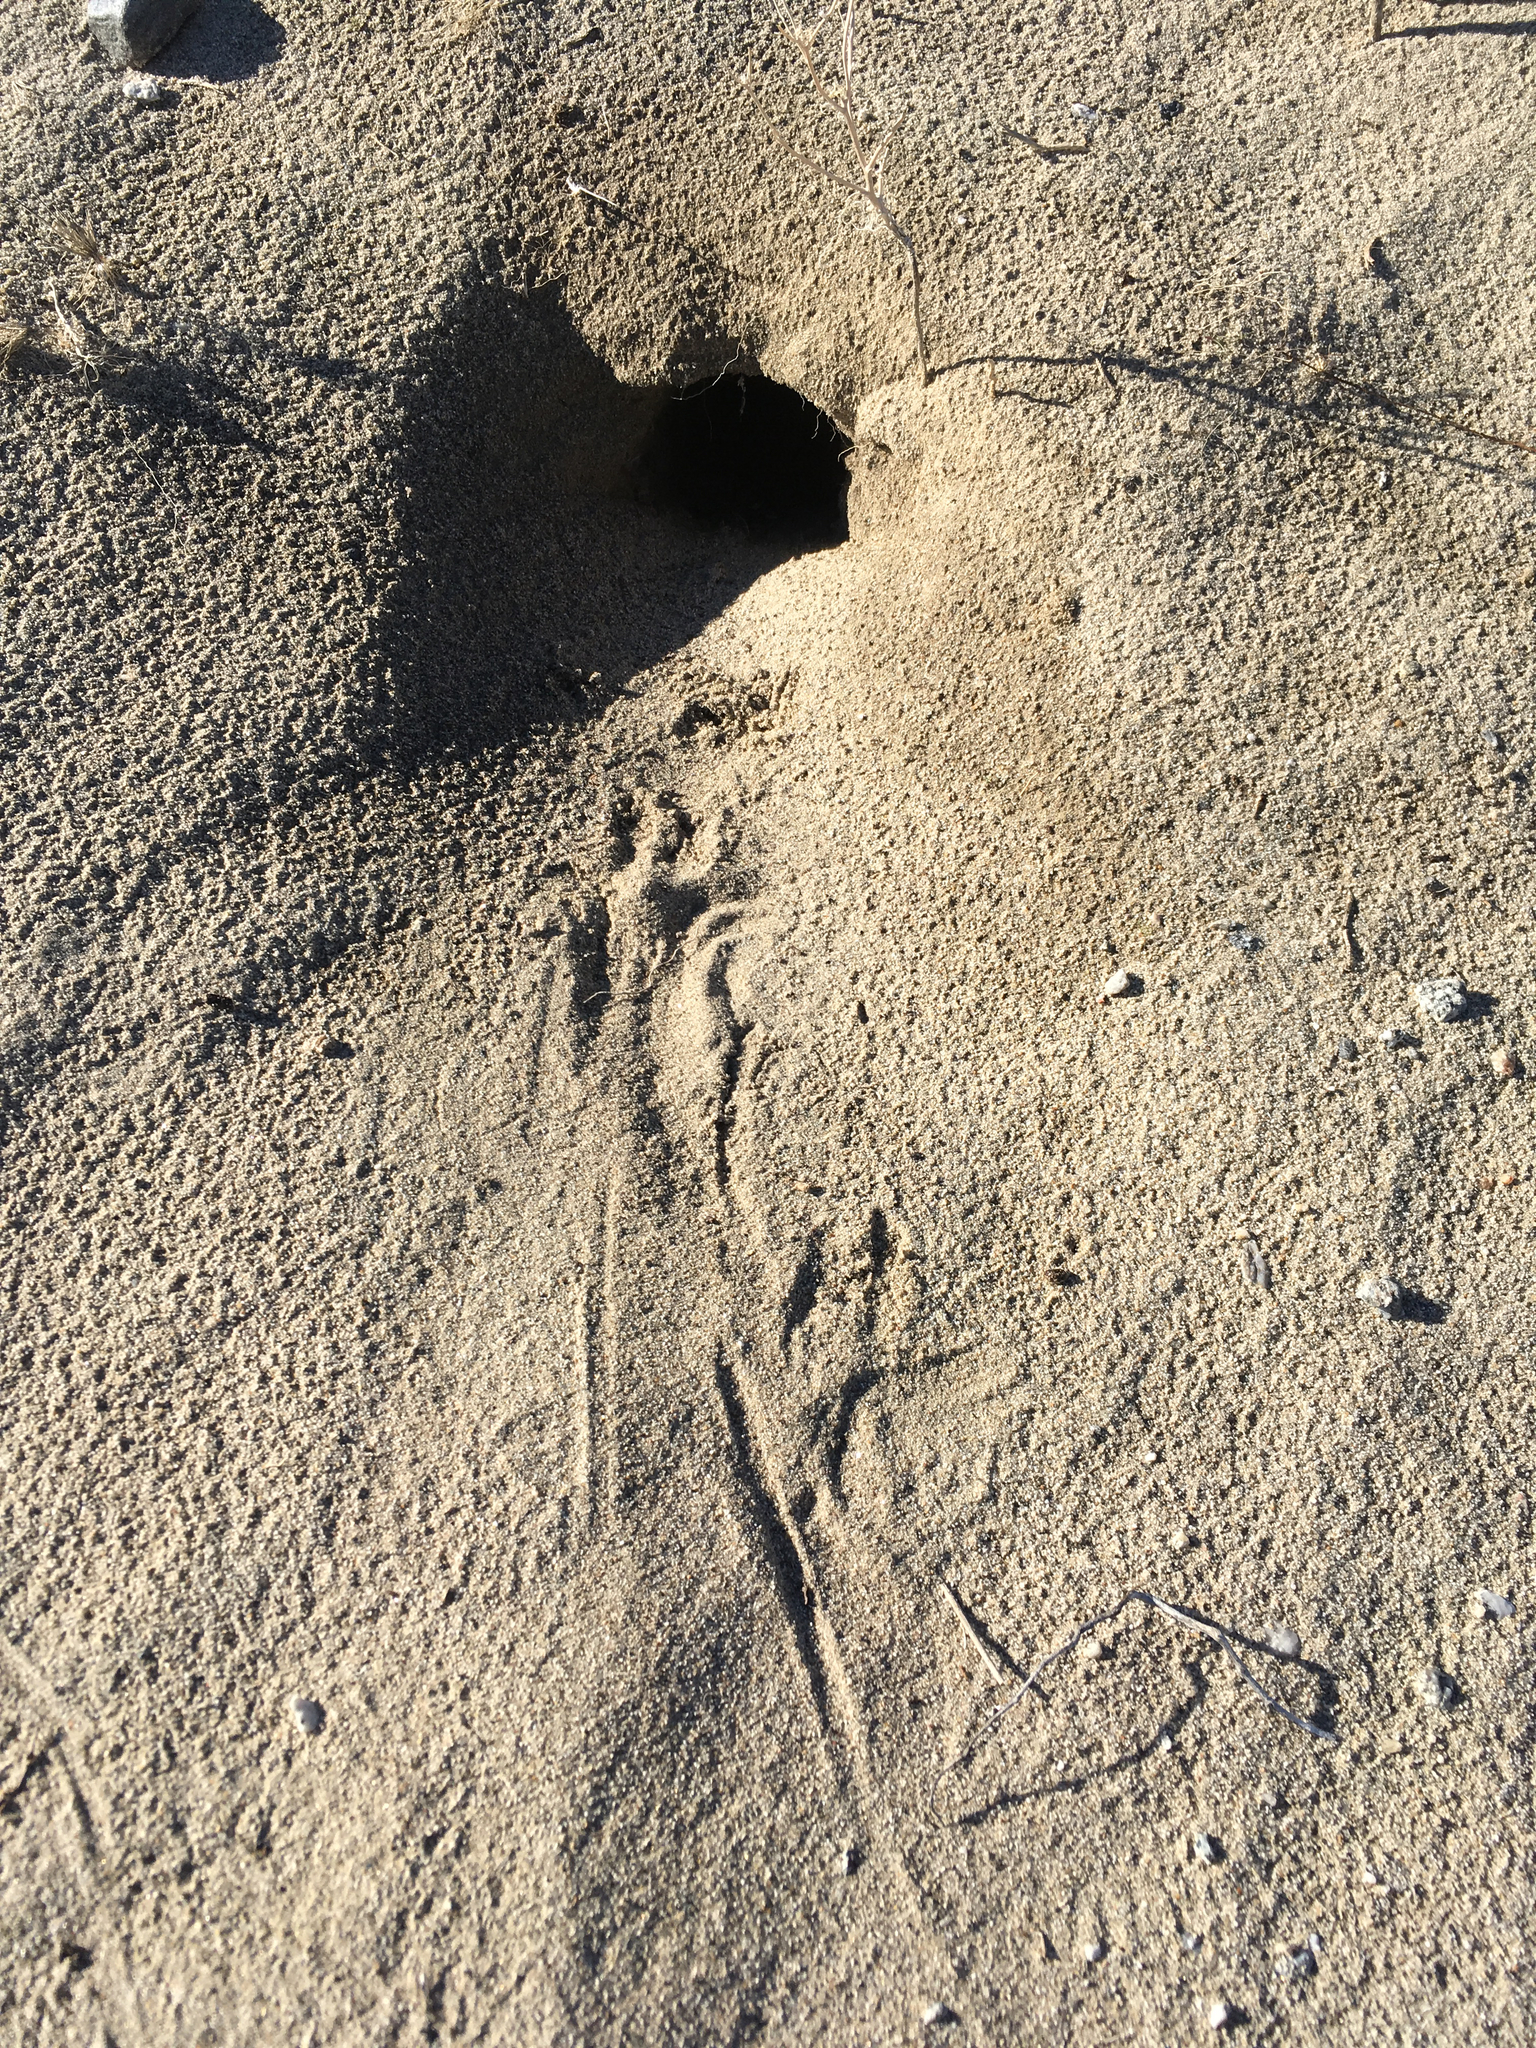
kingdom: Animalia
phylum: Chordata
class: Mammalia
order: Rodentia
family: Heteromyidae
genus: Dipodomys
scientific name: Dipodomys merriami
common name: Merriam's kangaroo rat
